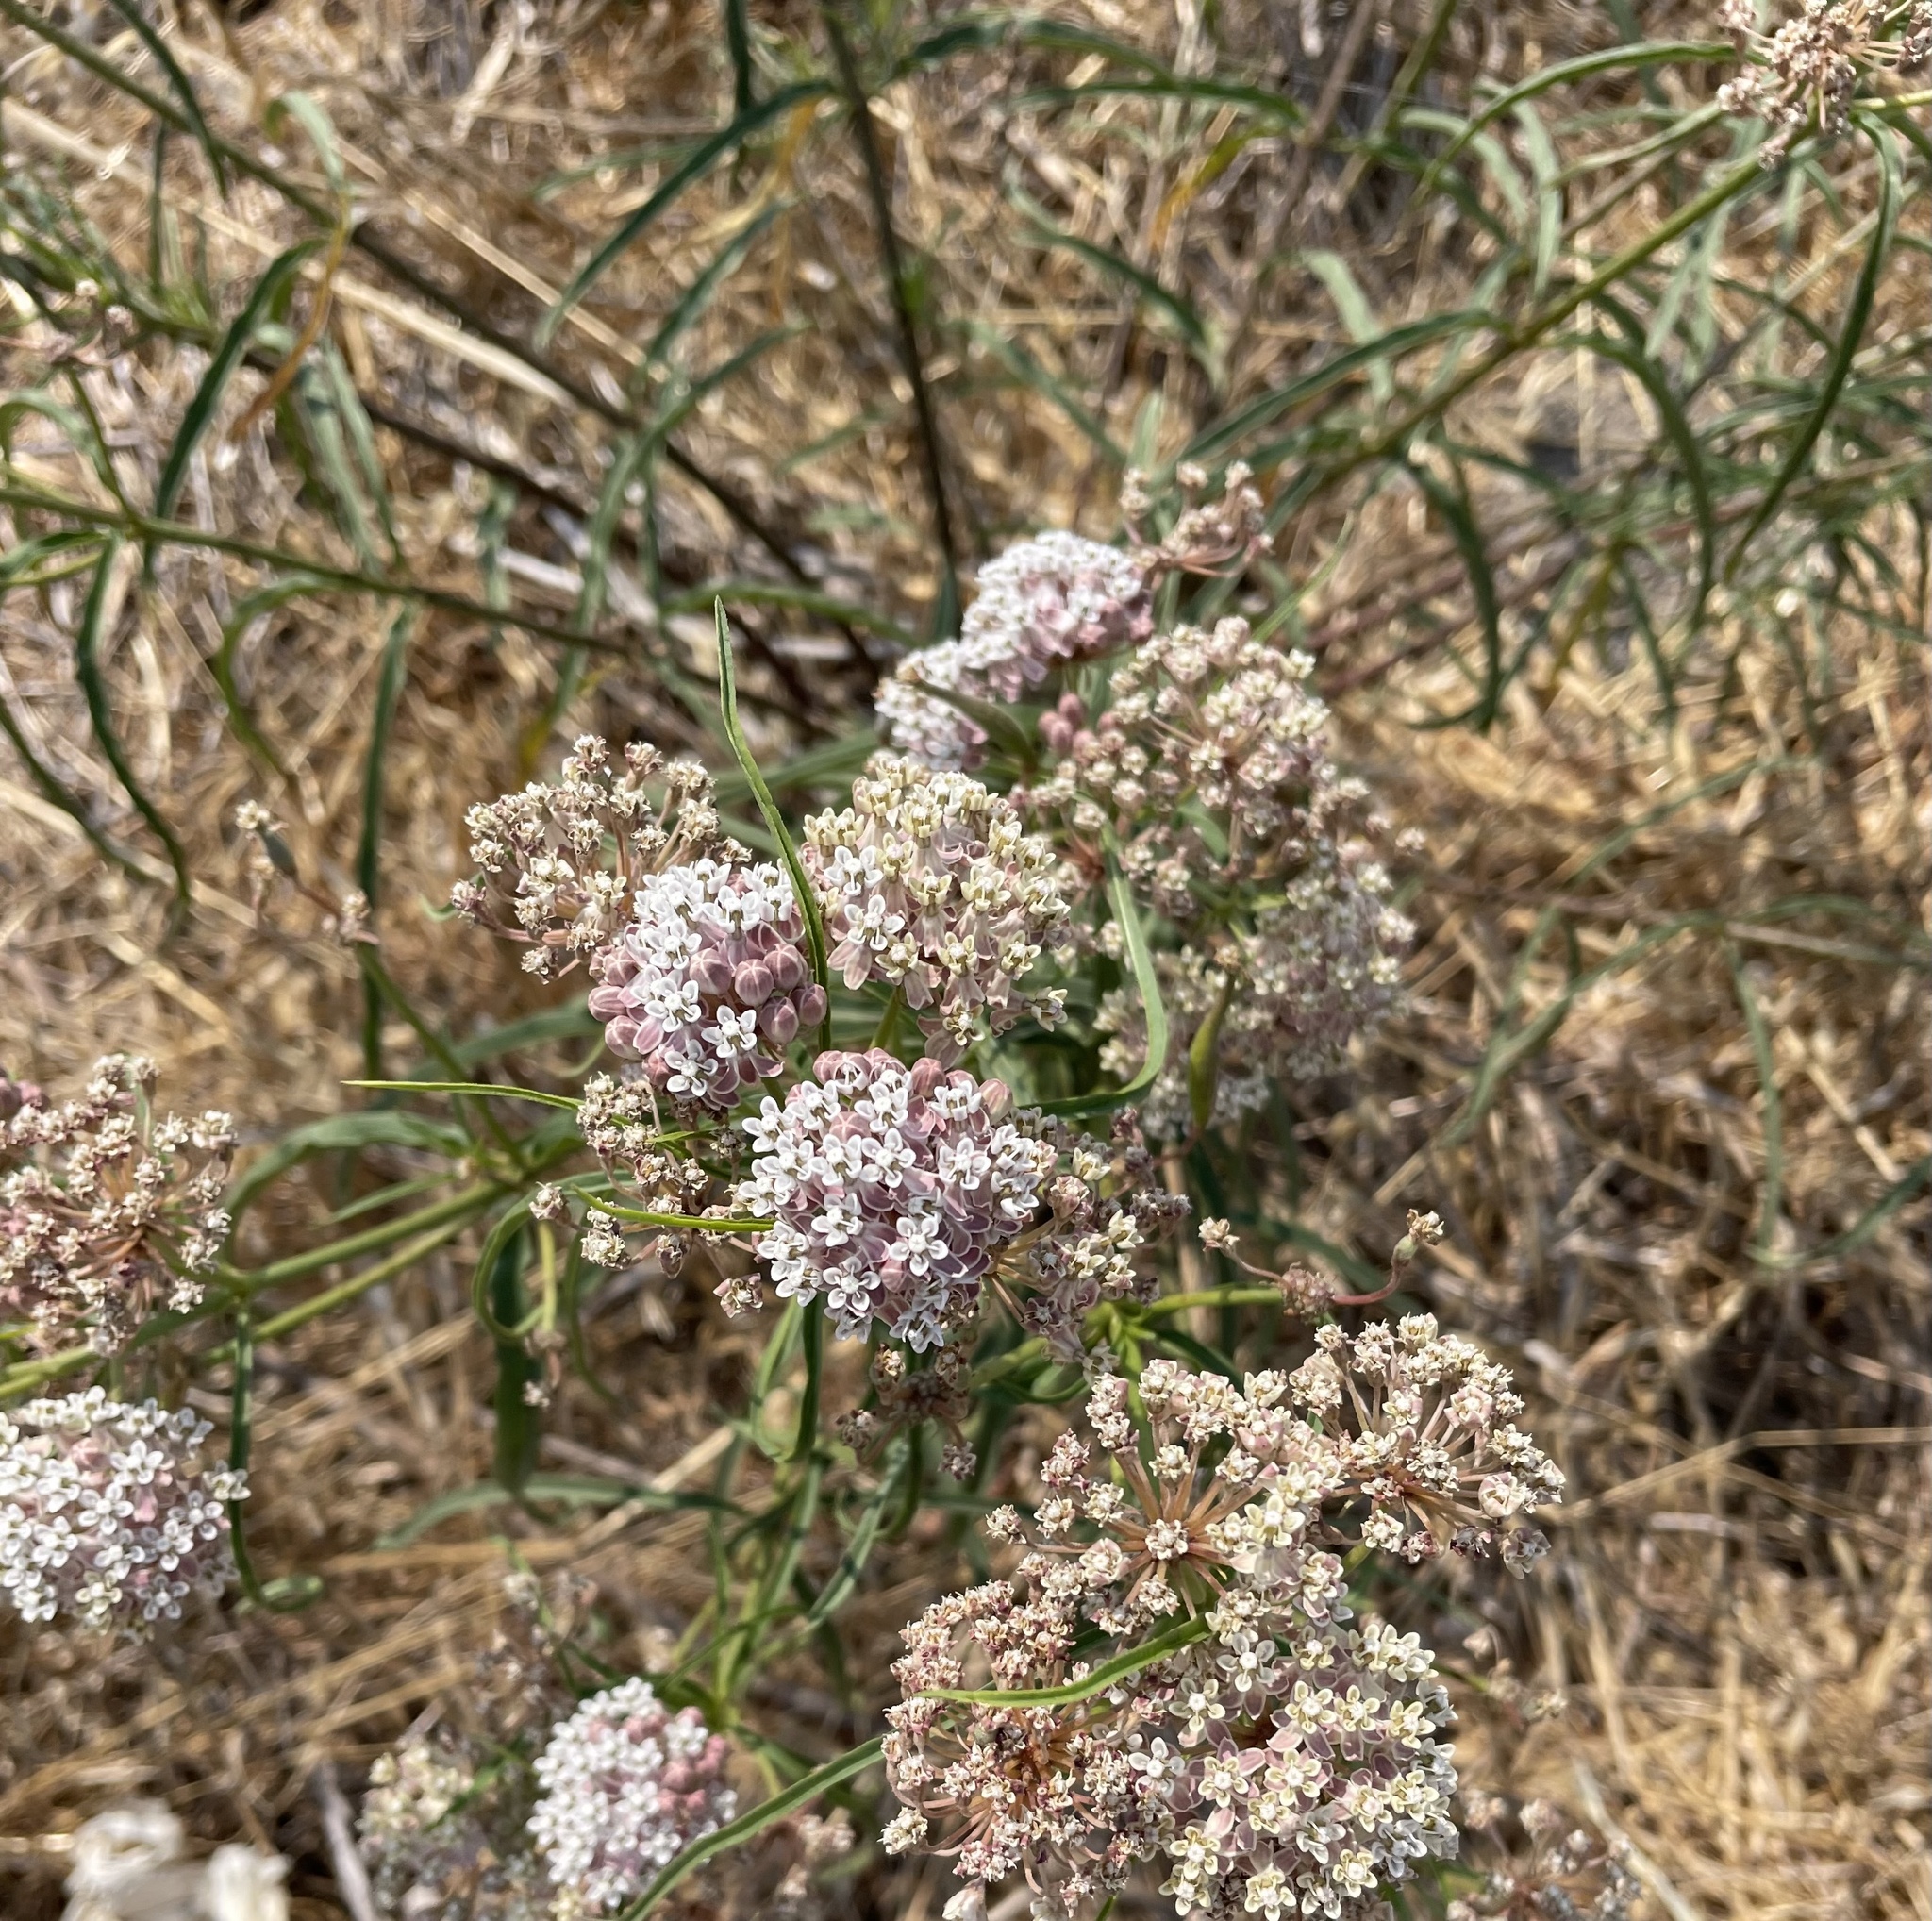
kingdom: Plantae
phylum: Tracheophyta
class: Magnoliopsida
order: Gentianales
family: Apocynaceae
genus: Asclepias
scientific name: Asclepias fascicularis
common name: Mexican milkweed
